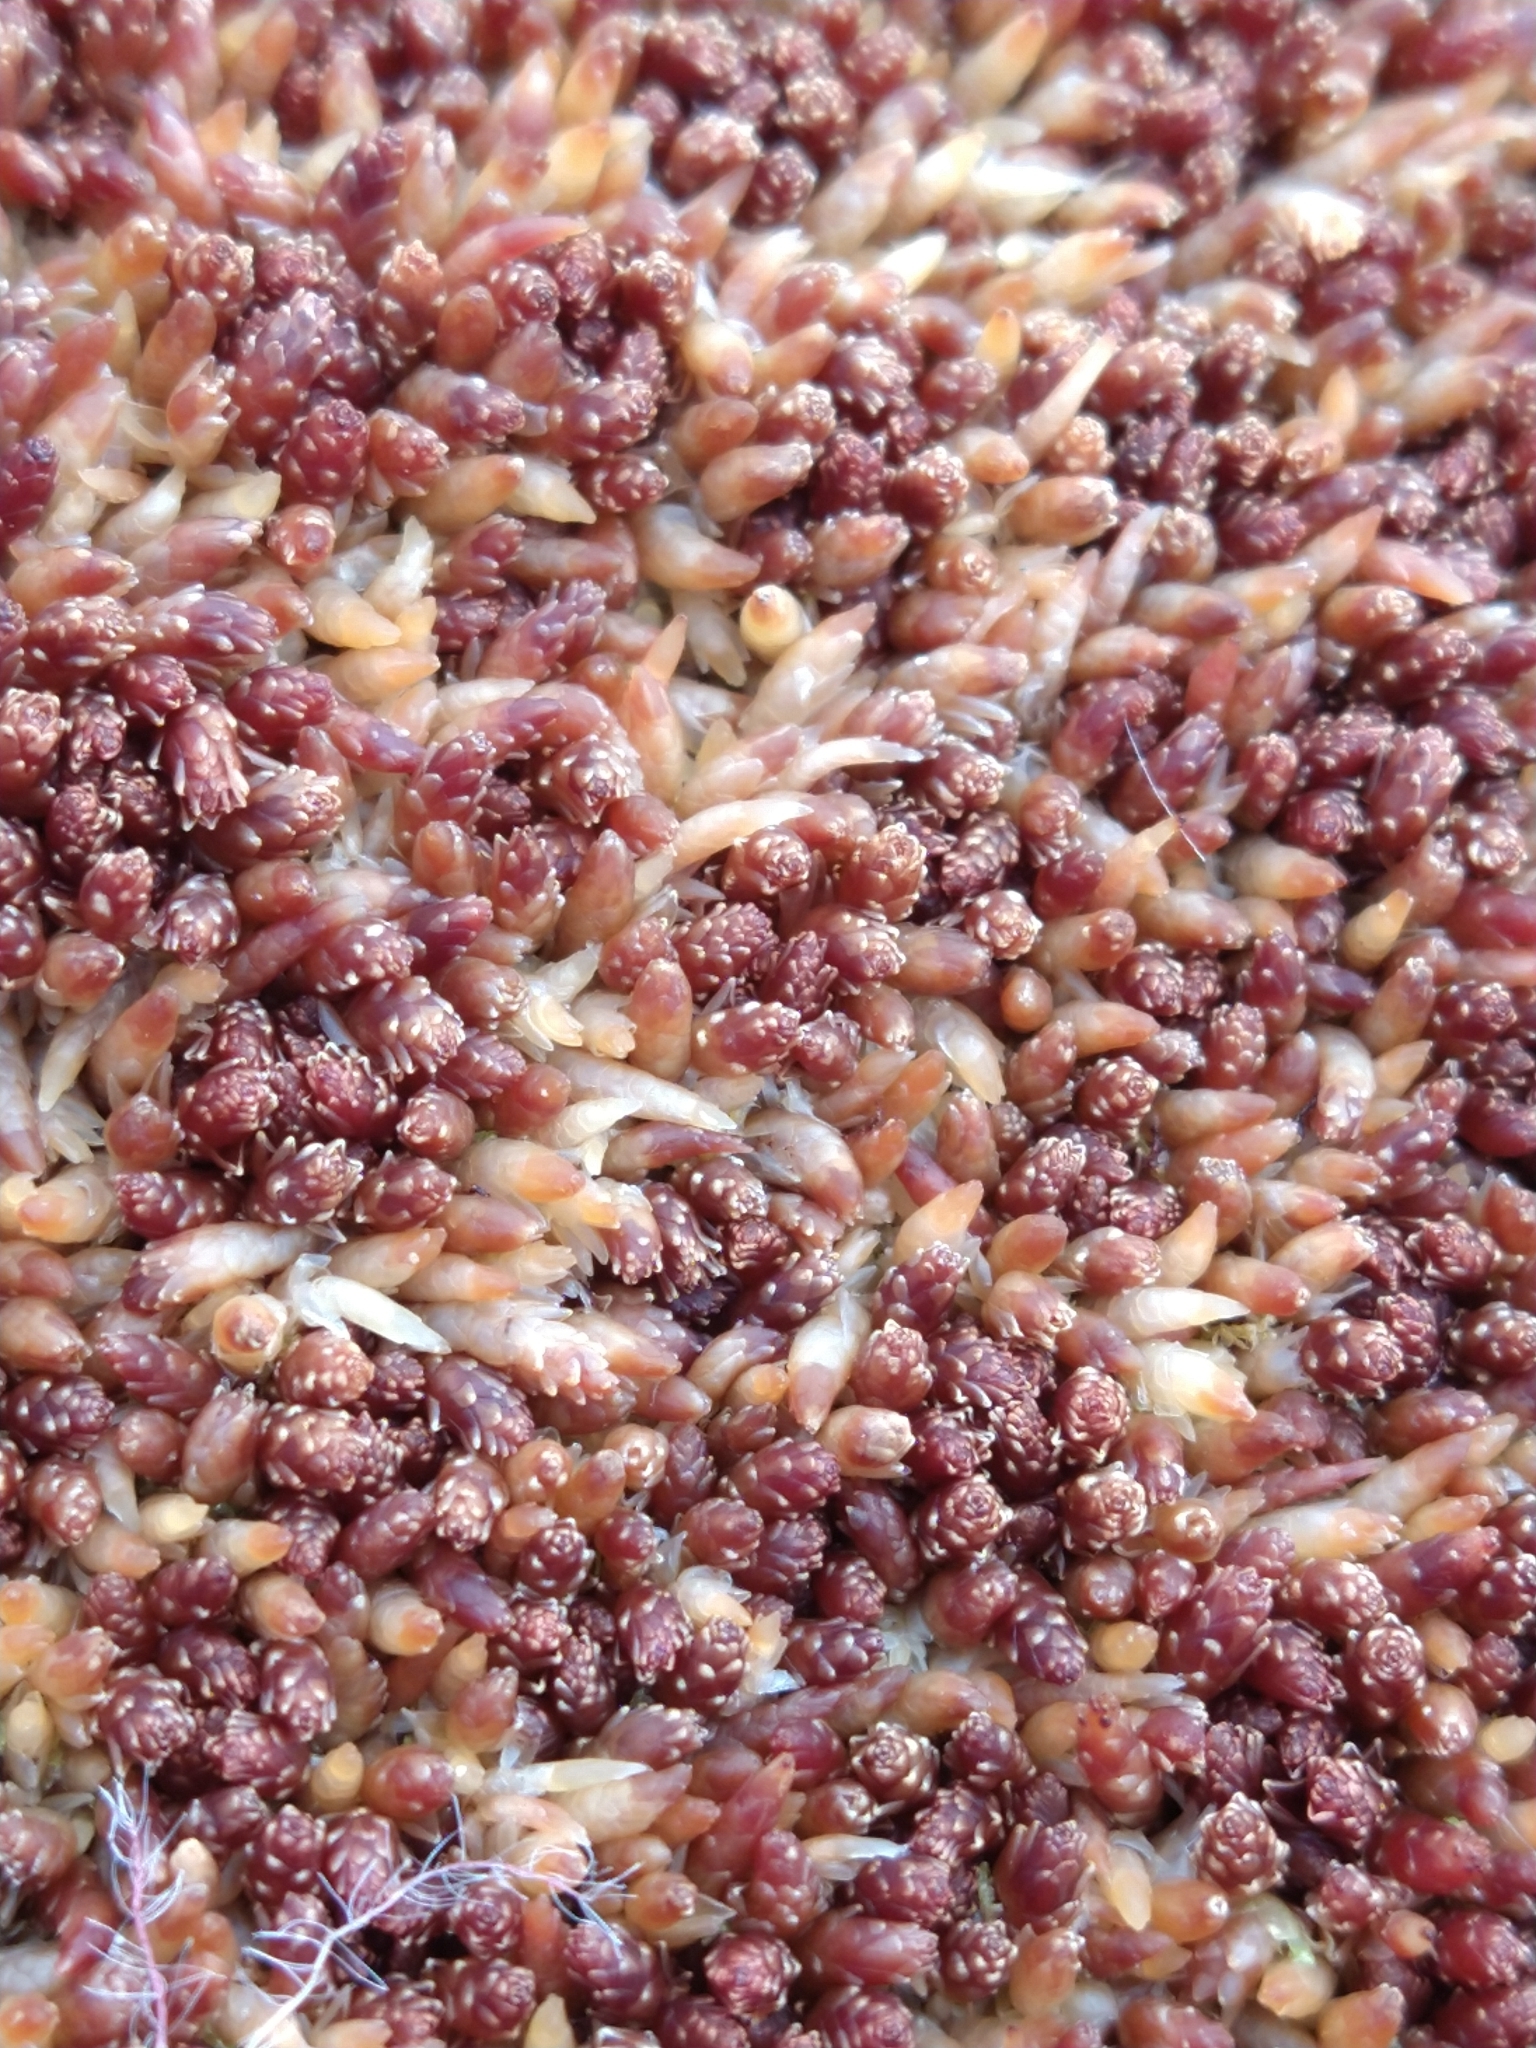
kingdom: Plantae
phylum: Bryophyta
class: Sphagnopsida
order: Sphagnales
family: Sphagnaceae
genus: Sphagnum
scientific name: Sphagnum magellanicum
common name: Magellan's peat moss
